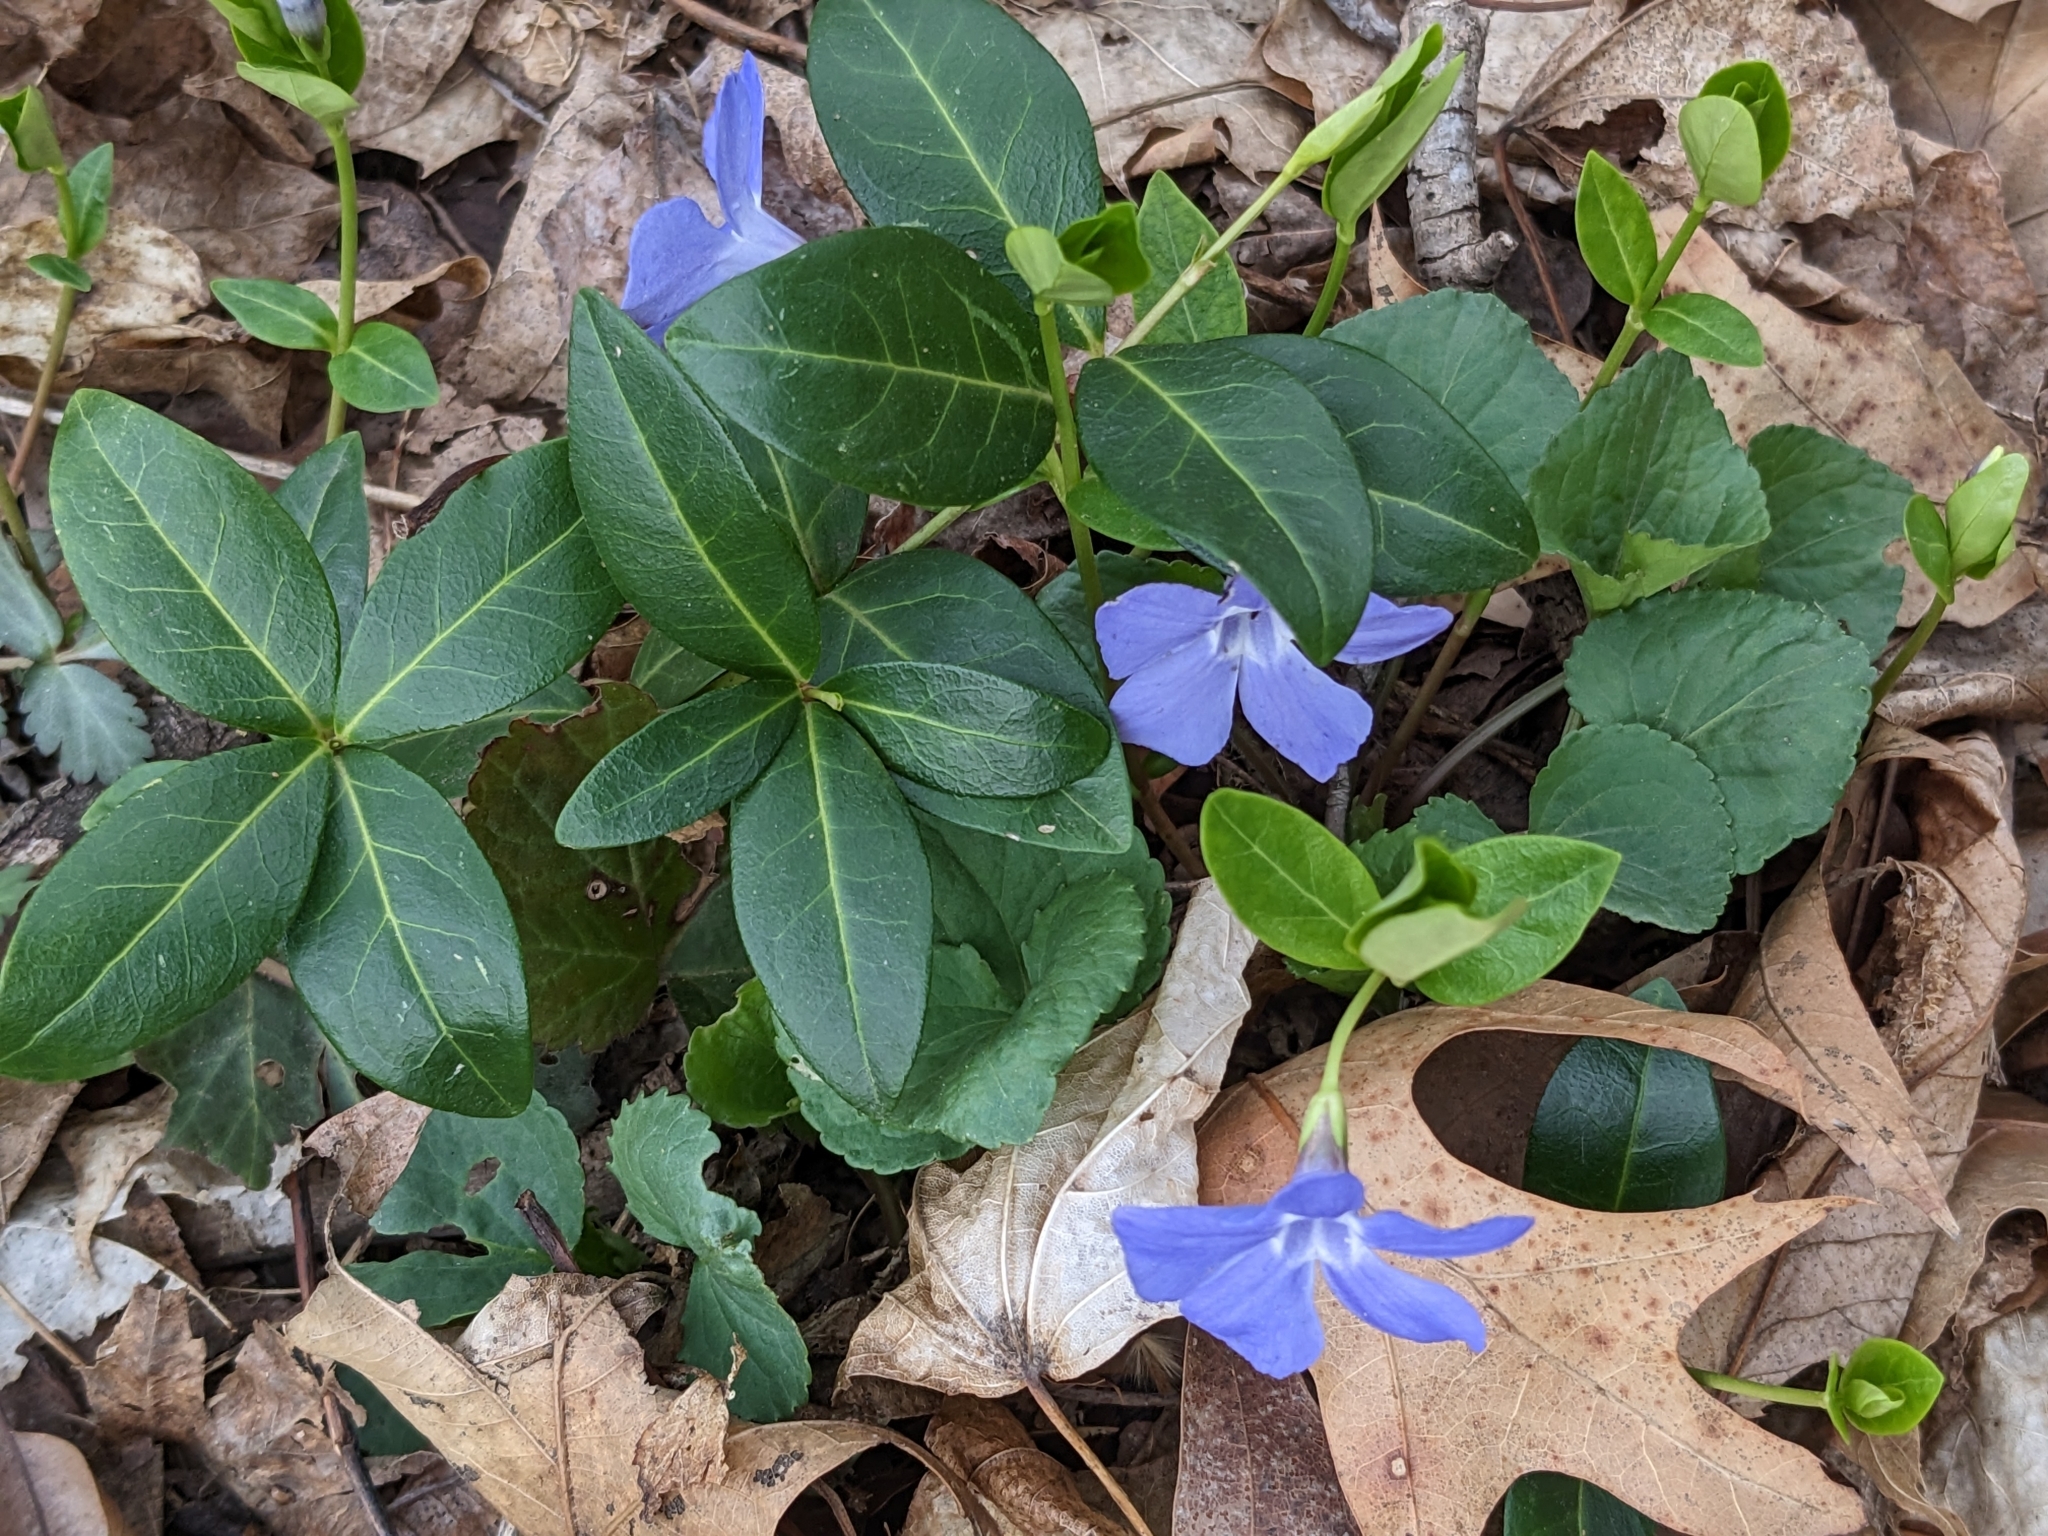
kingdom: Plantae
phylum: Tracheophyta
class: Magnoliopsida
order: Gentianales
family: Apocynaceae
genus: Vinca
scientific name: Vinca minor
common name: Lesser periwinkle
